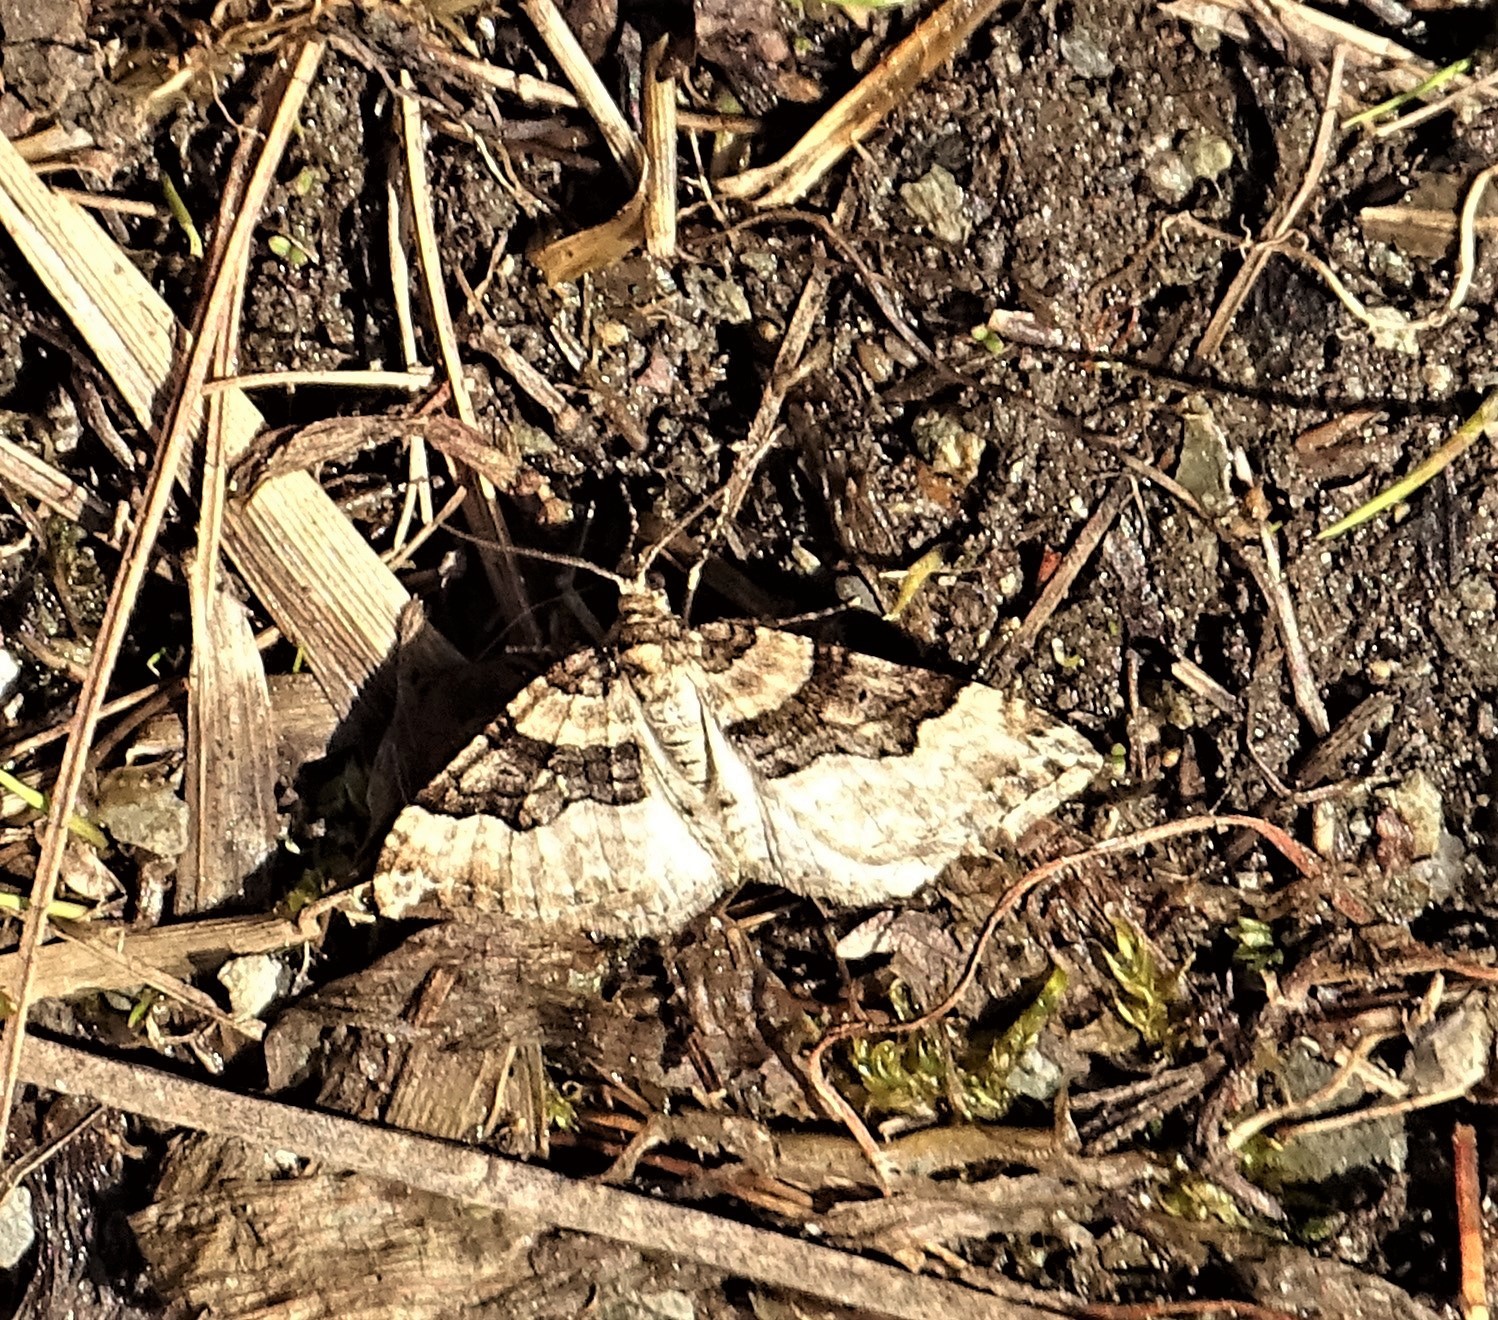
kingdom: Animalia
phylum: Arthropoda
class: Insecta
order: Lepidoptera
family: Geometridae
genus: Xanthorhoe
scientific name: Xanthorhoe lacustrata
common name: Toothed brown carpet
